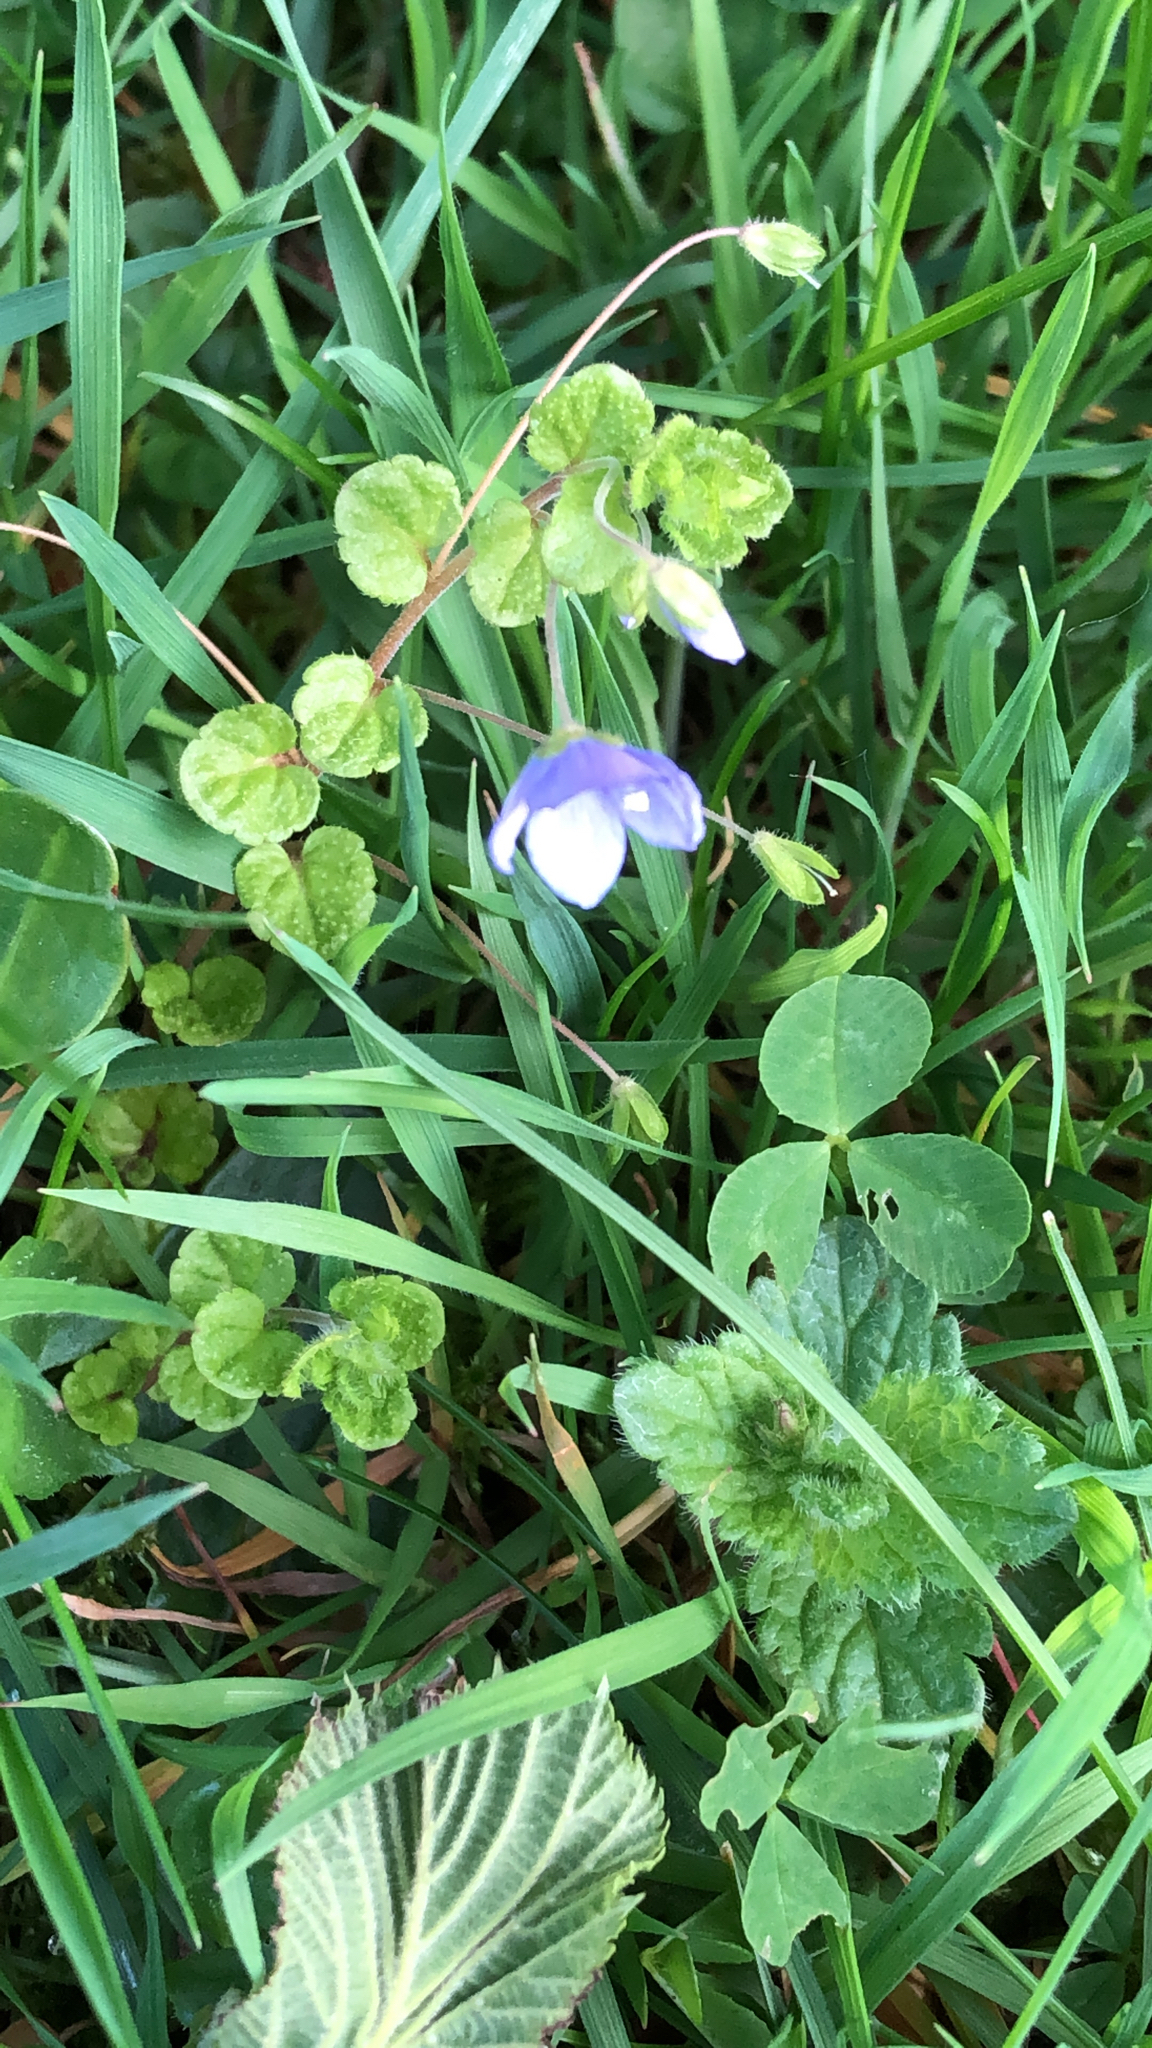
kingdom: Plantae
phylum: Tracheophyta
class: Magnoliopsida
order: Lamiales
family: Plantaginaceae
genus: Veronica
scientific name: Veronica filiformis
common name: Slender speedwell
